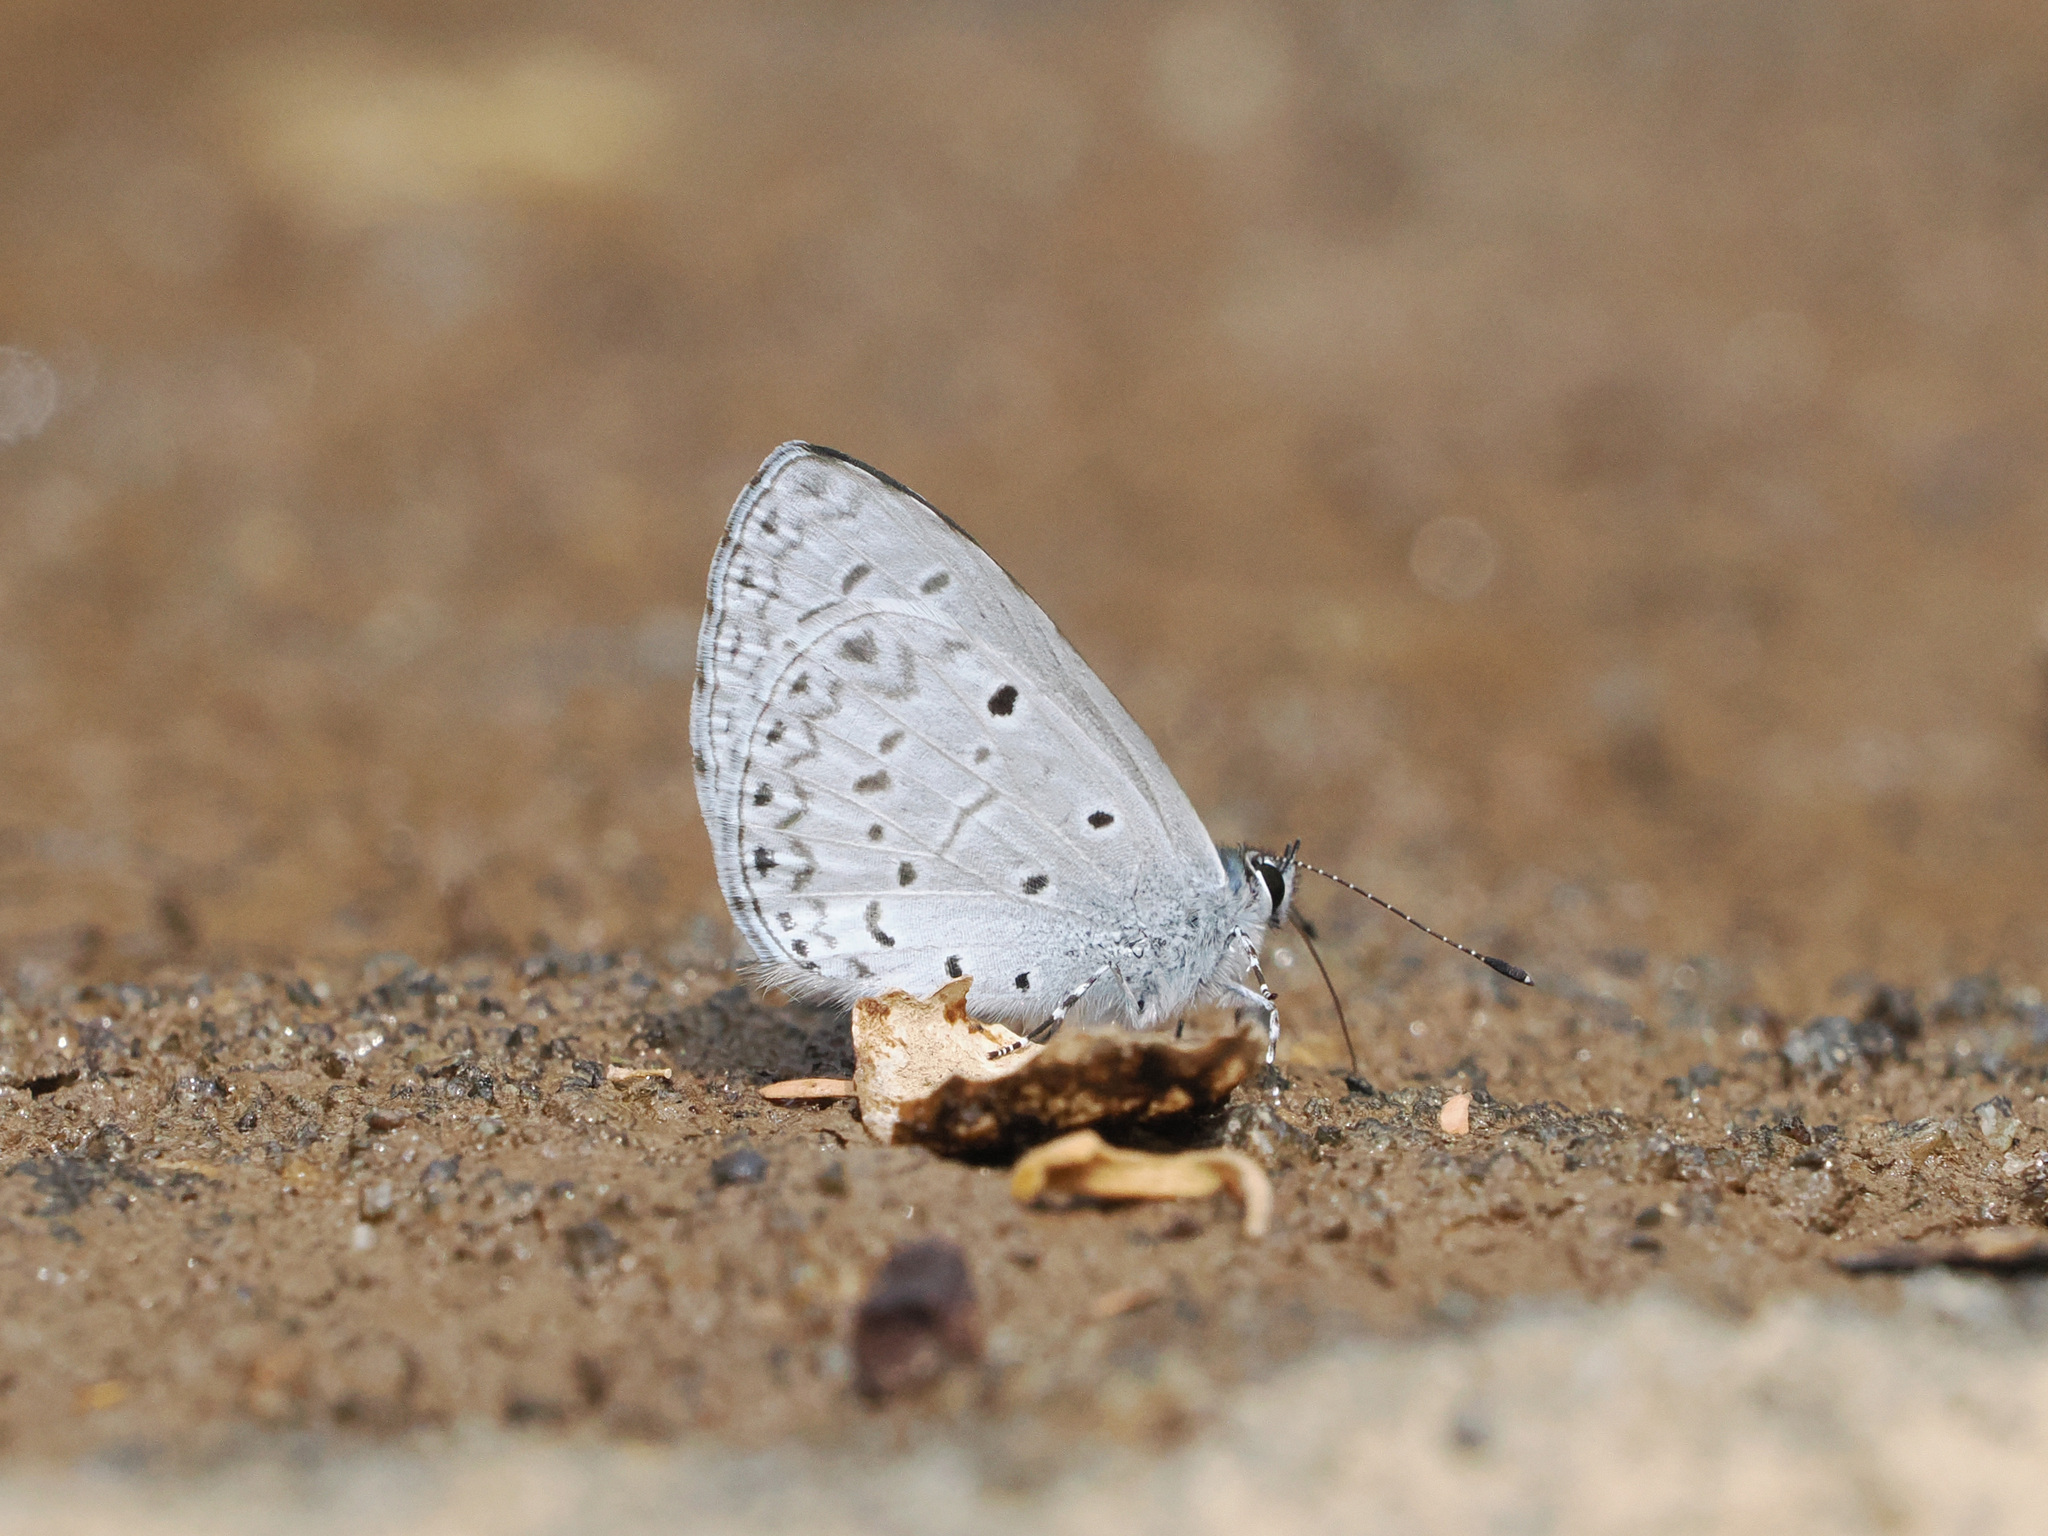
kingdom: Animalia
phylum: Arthropoda
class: Insecta
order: Lepidoptera
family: Lycaenidae
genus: Celastrina
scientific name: Celastrina lavendularis
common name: Plain hedge blue
